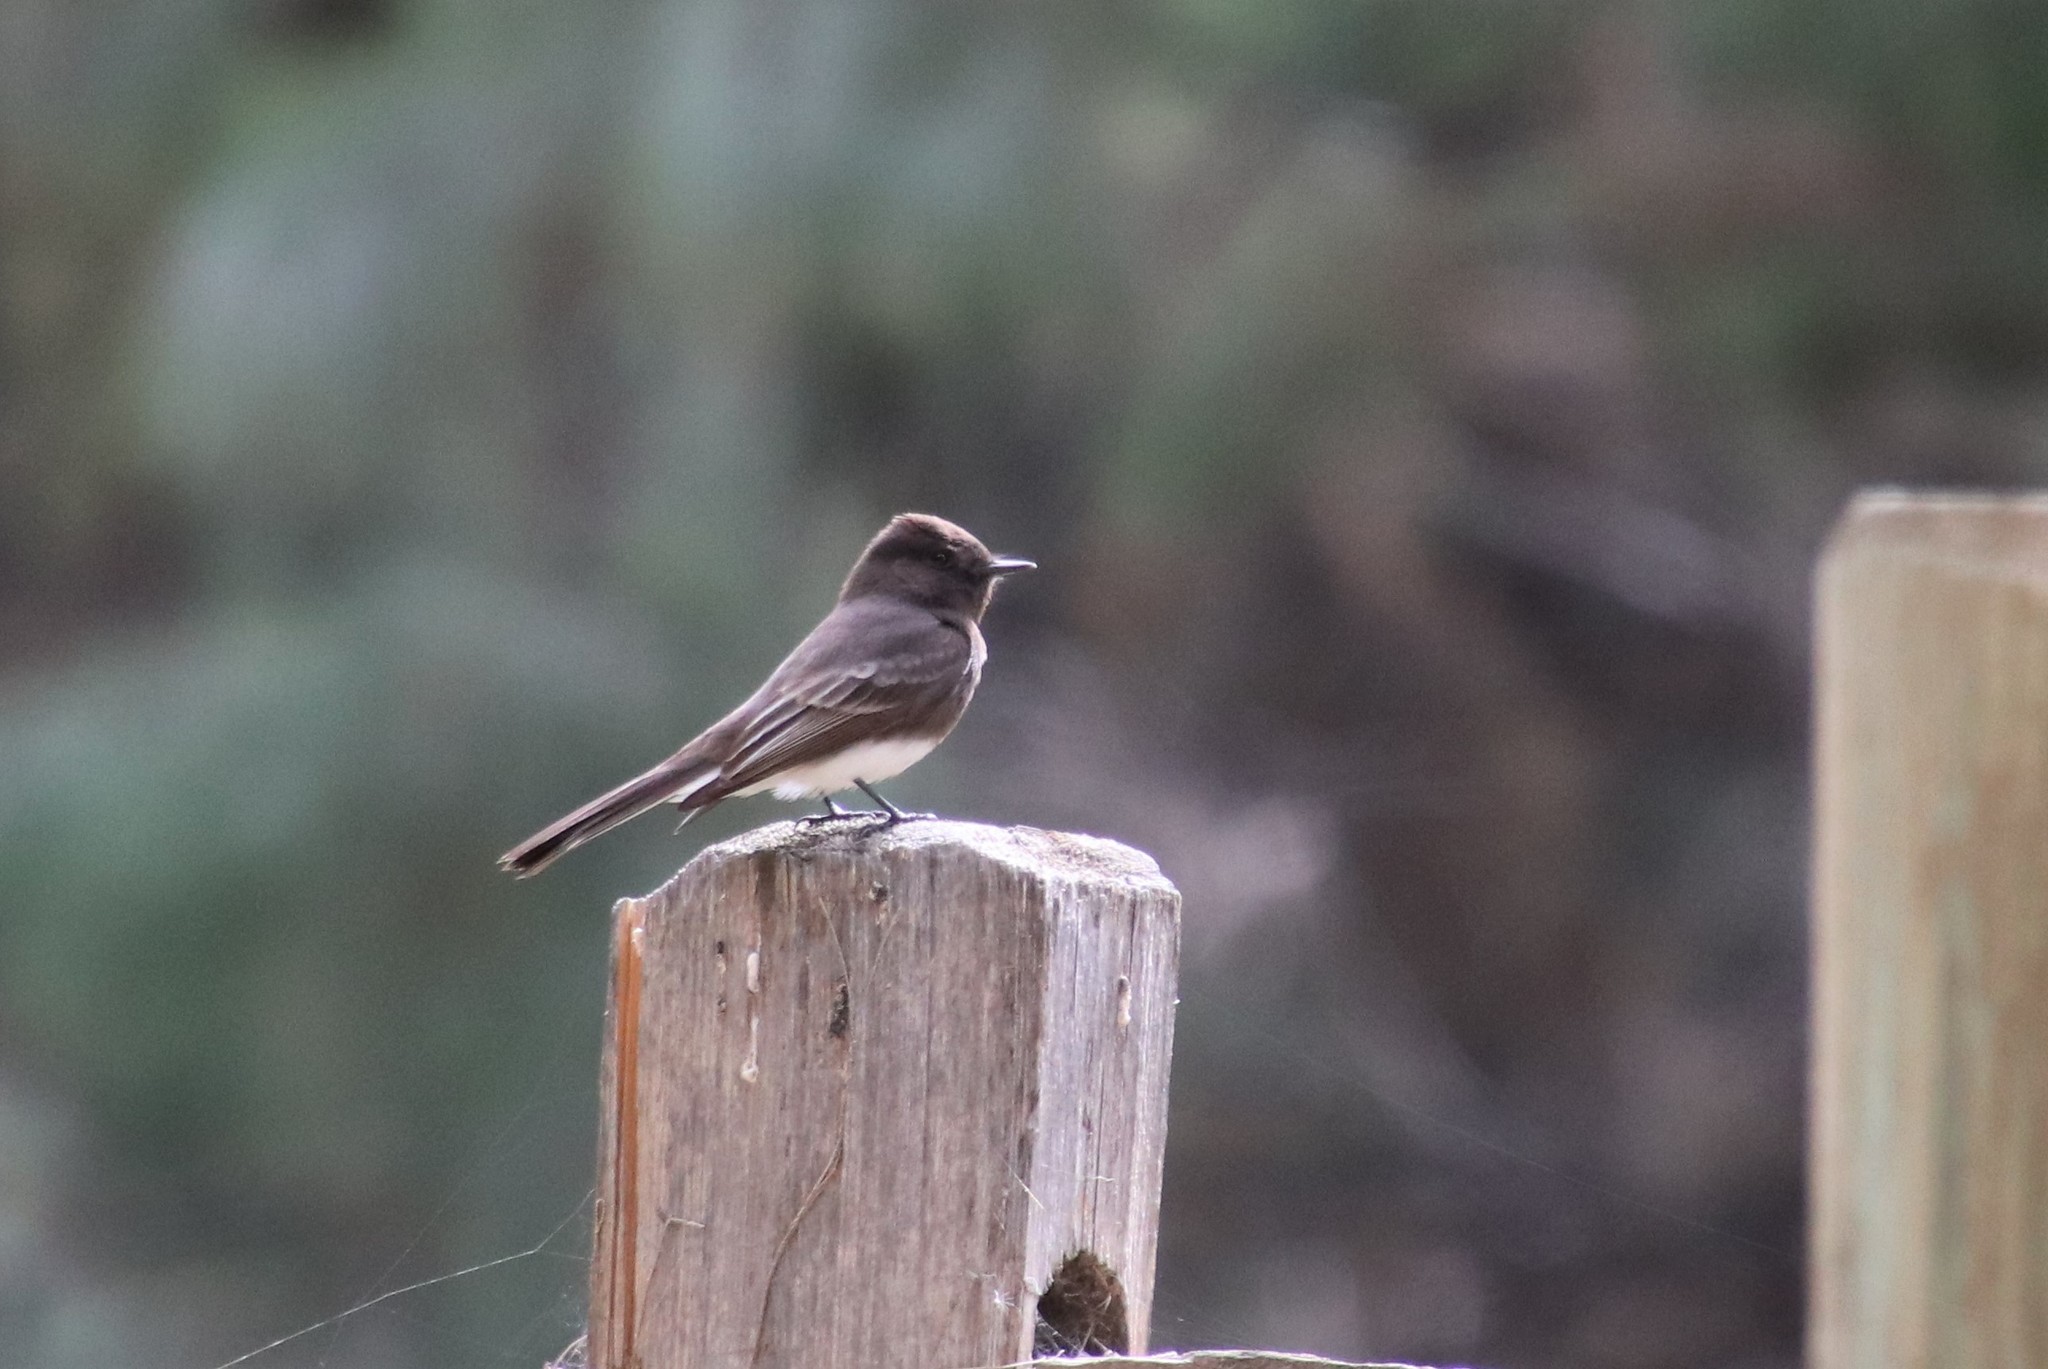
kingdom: Animalia
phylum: Chordata
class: Aves
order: Passeriformes
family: Tyrannidae
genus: Sayornis
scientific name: Sayornis nigricans
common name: Black phoebe
